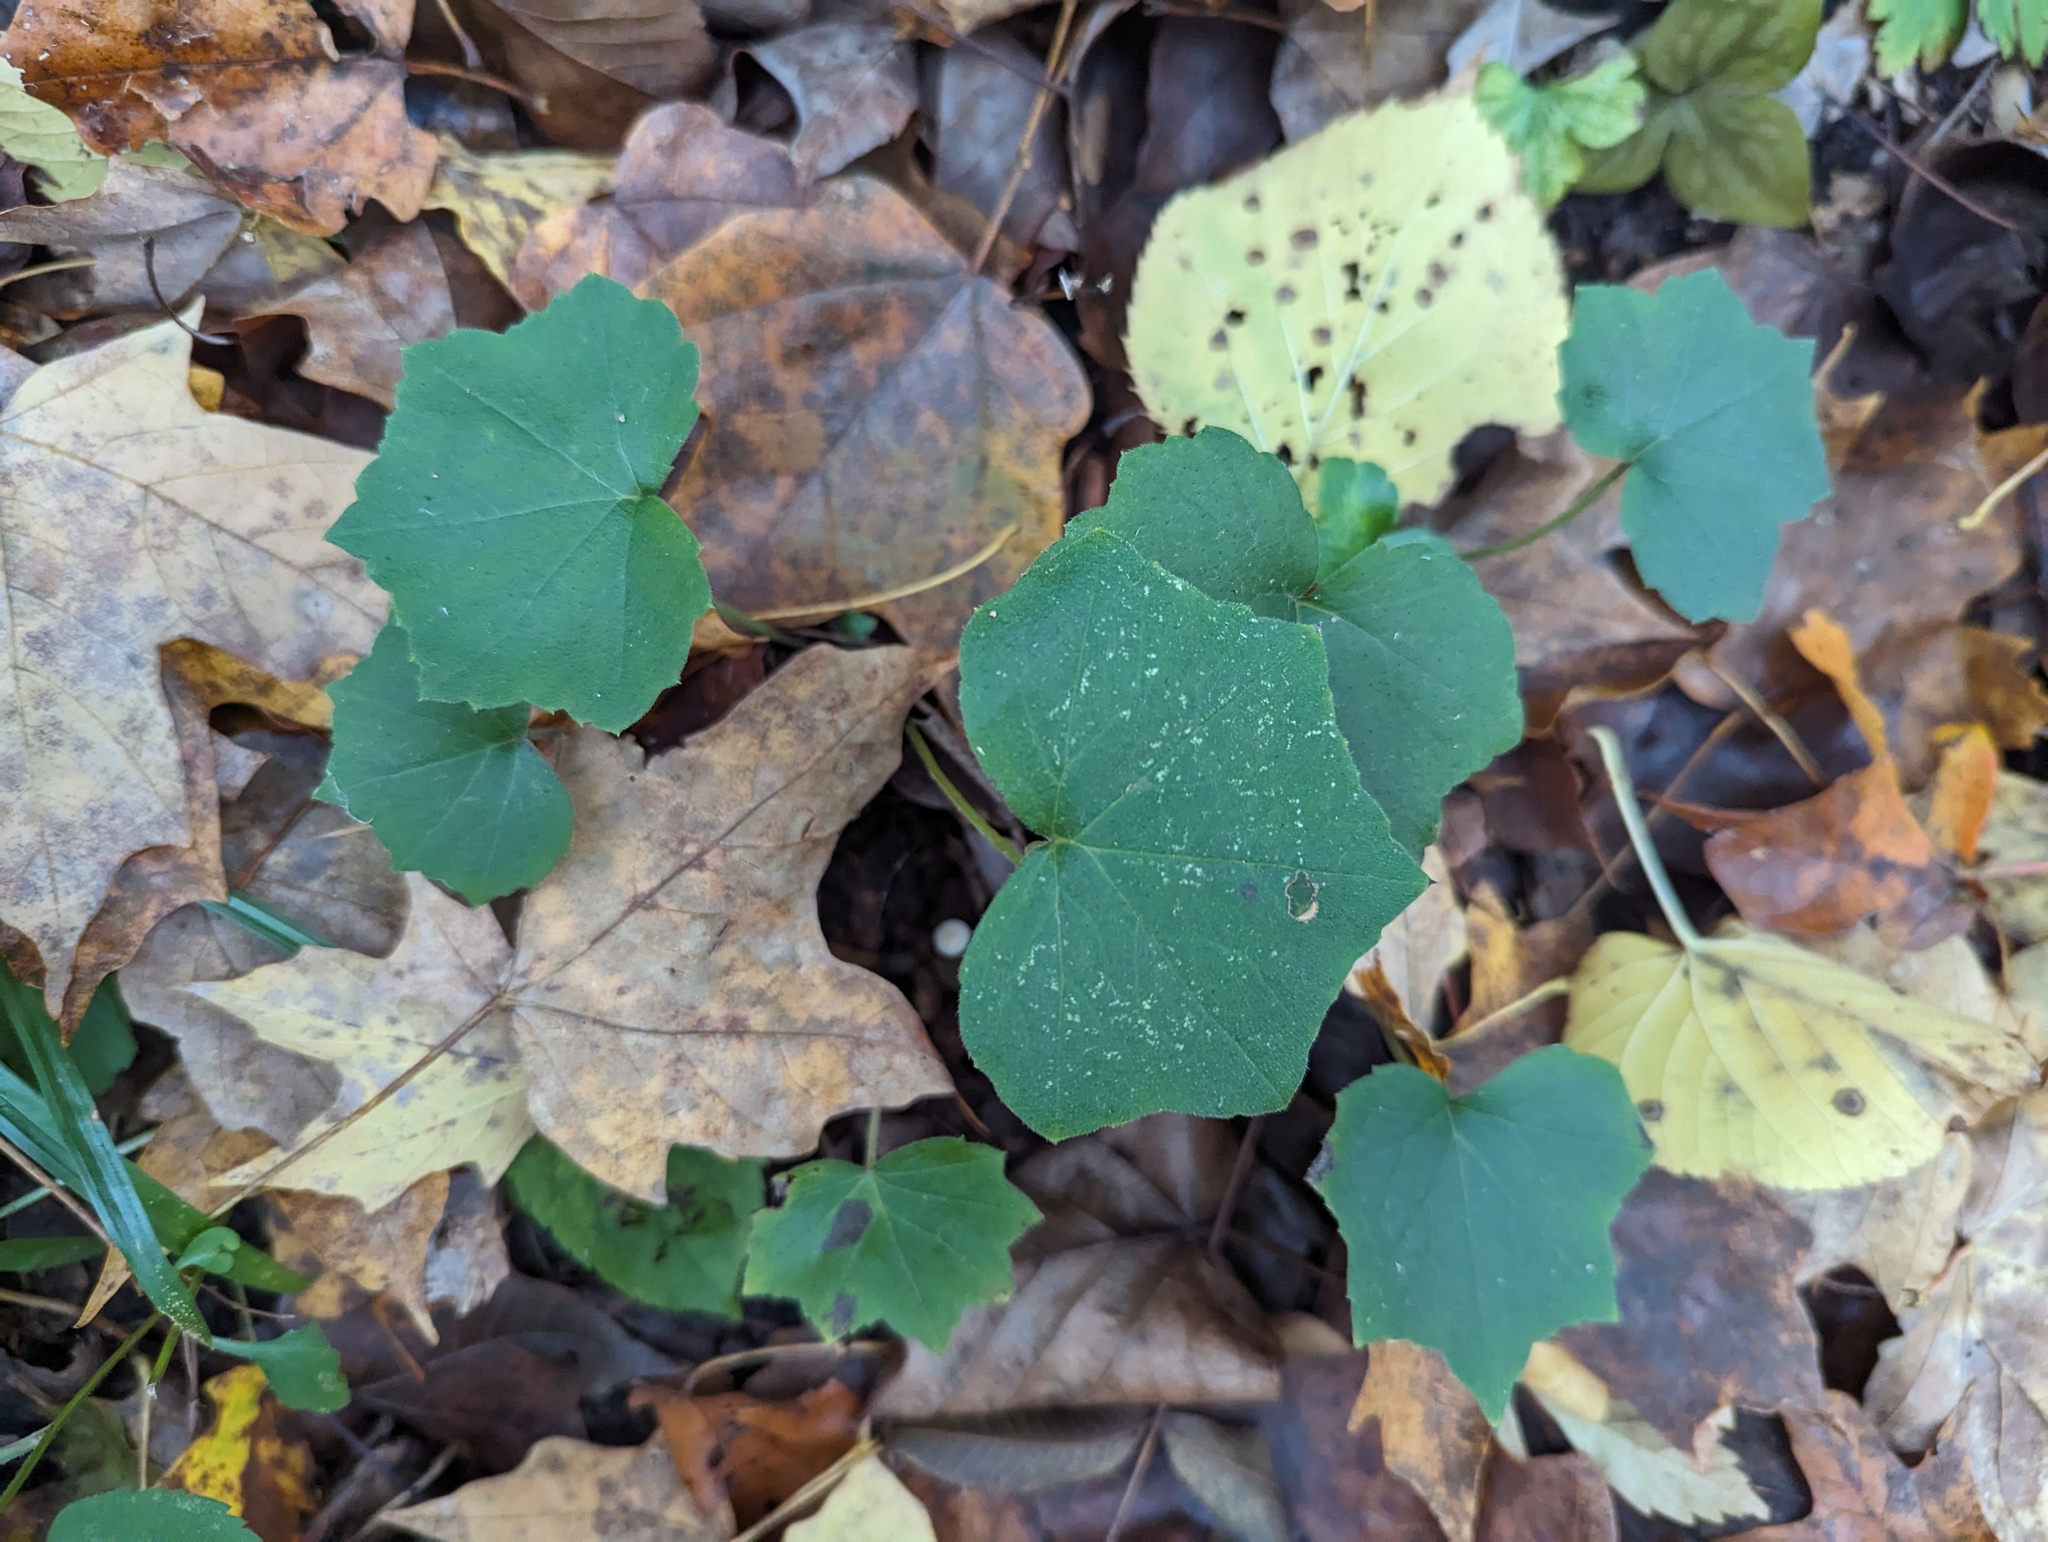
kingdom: Plantae
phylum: Tracheophyta
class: Magnoliopsida
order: Boraginales
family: Hydrophyllaceae
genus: Hydrophyllum
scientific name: Hydrophyllum canadense
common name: Canada waterleaf
